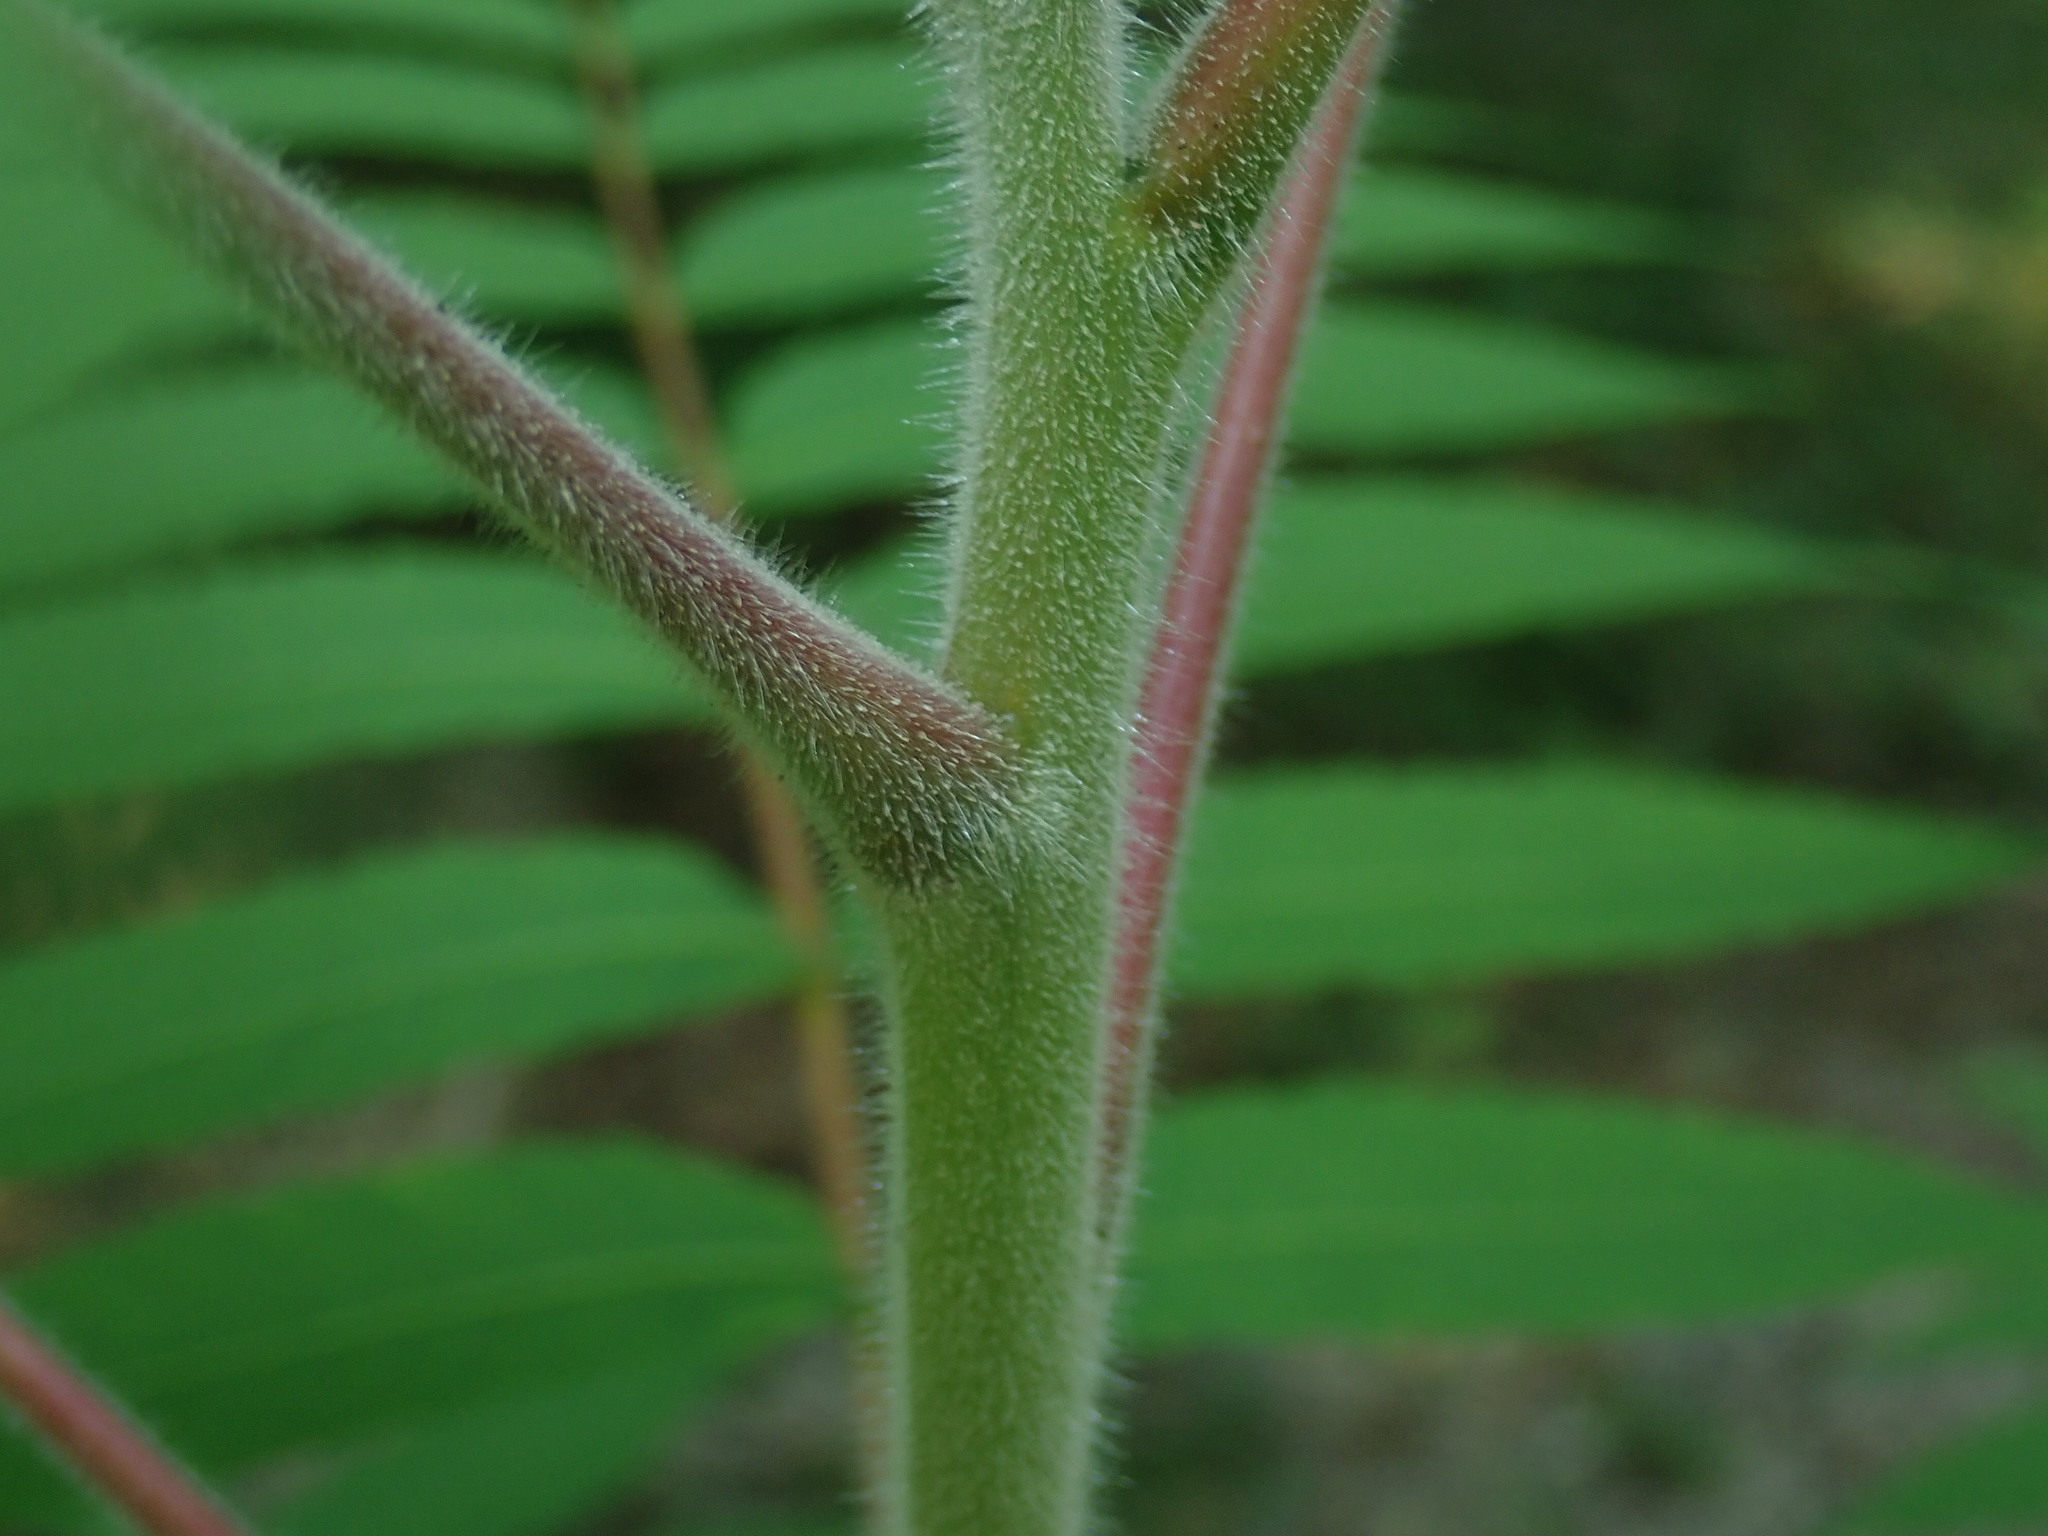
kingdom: Plantae
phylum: Tracheophyta
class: Magnoliopsida
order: Sapindales
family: Anacardiaceae
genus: Rhus
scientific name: Rhus typhina
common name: Staghorn sumac
